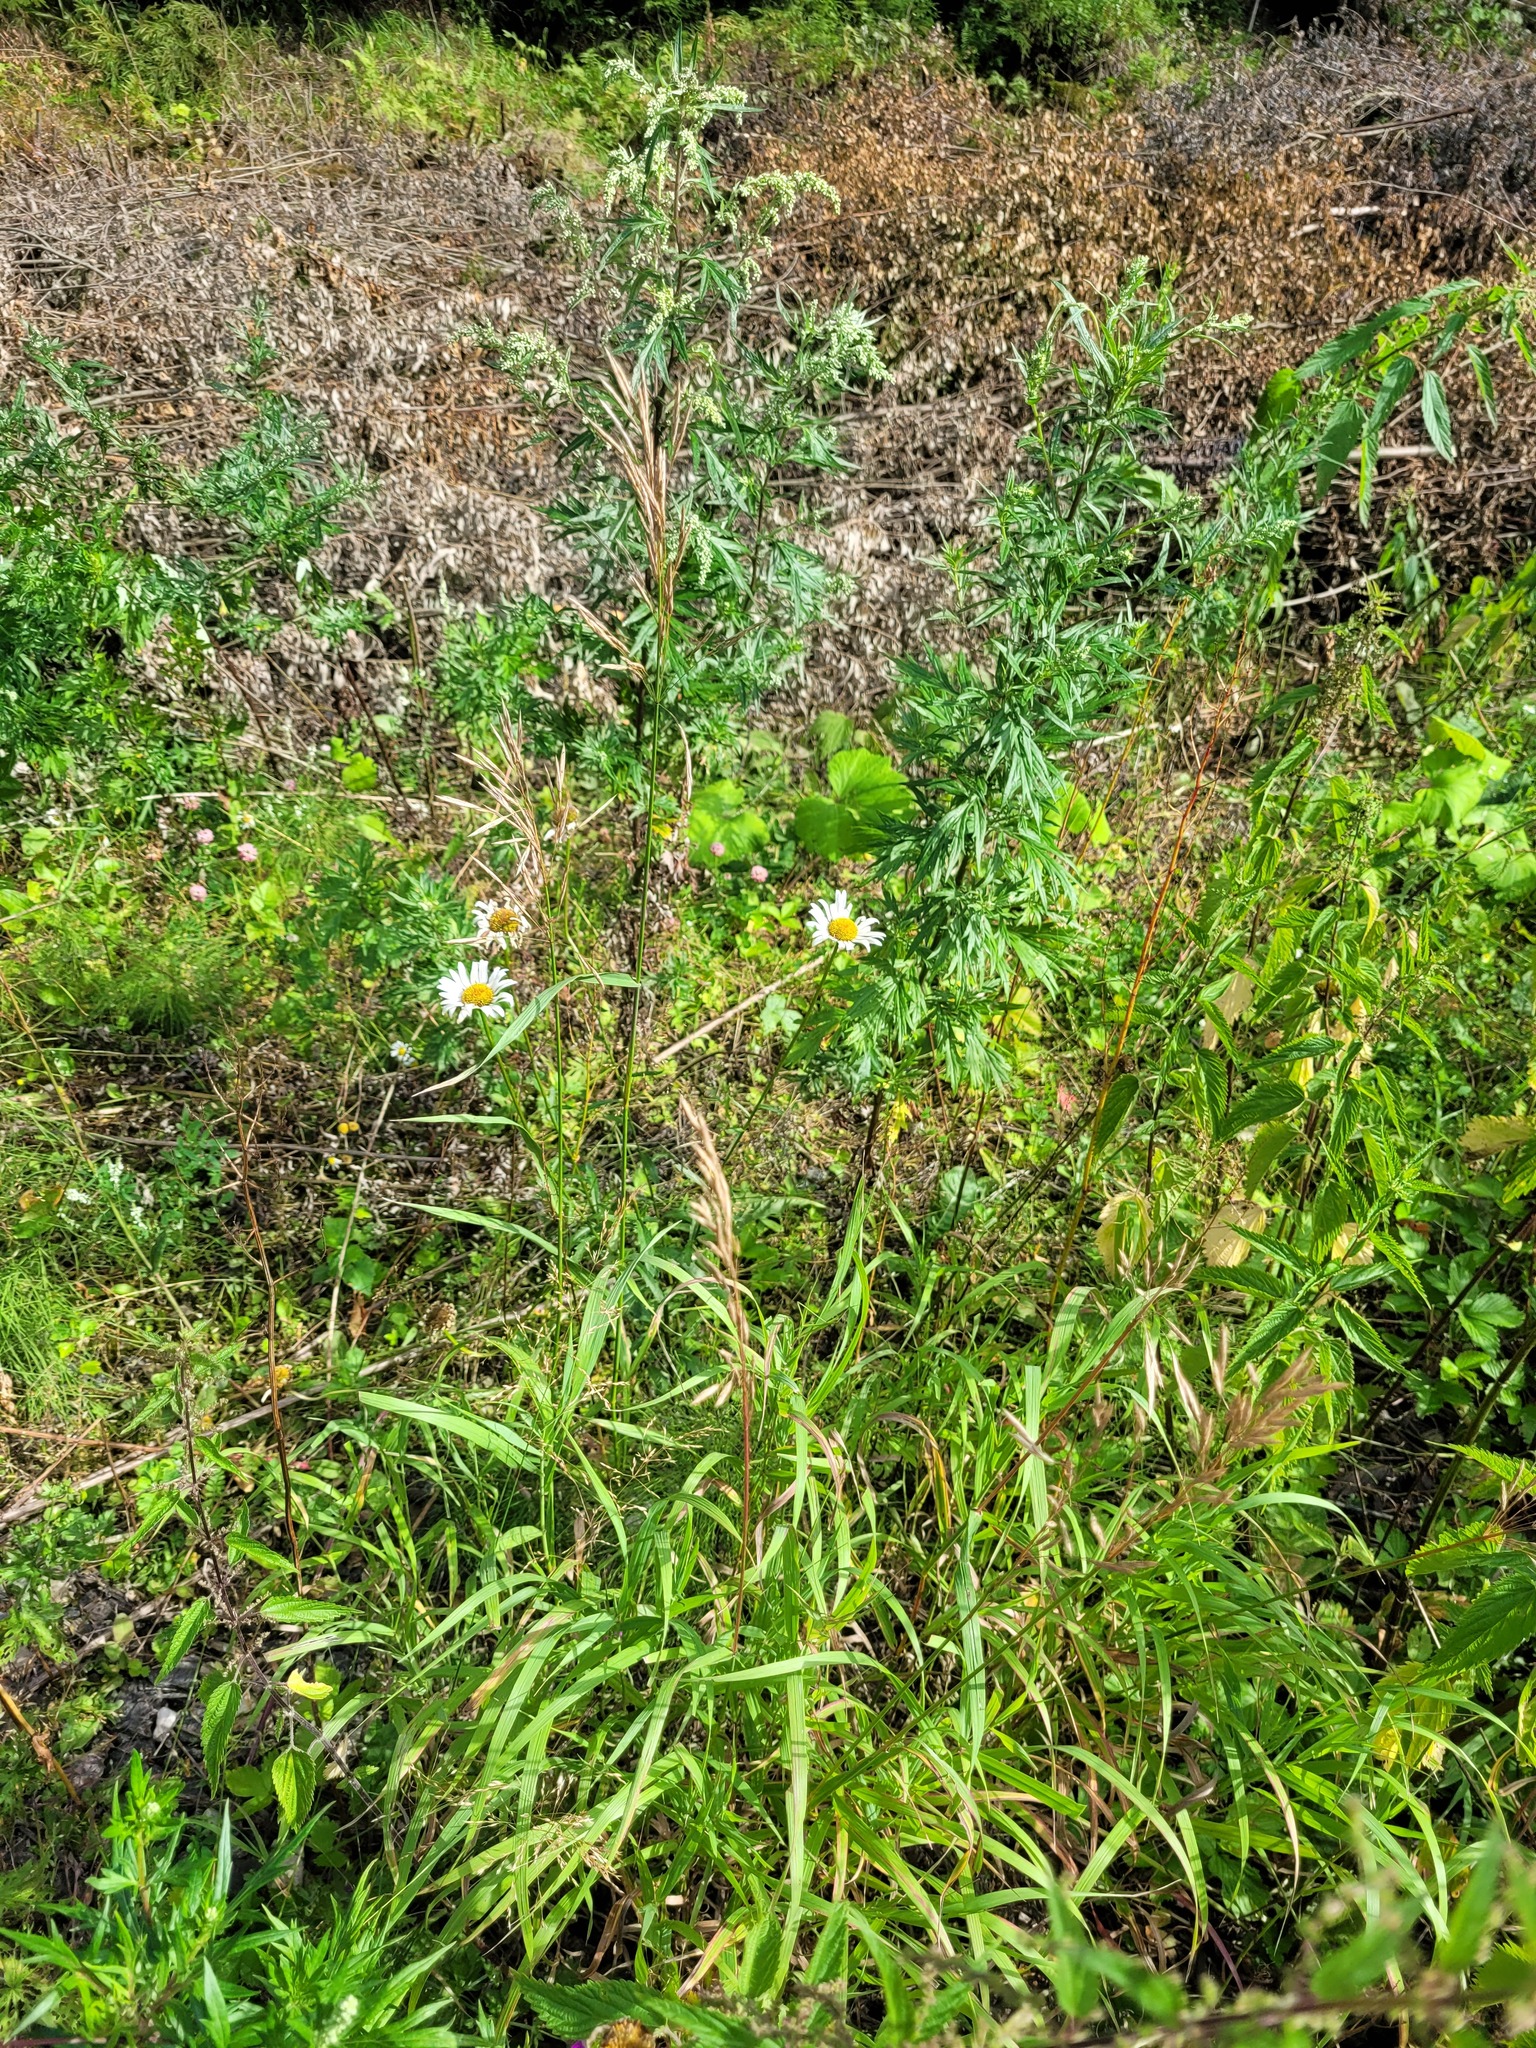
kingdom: Plantae
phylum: Tracheophyta
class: Liliopsida
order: Poales
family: Poaceae
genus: Bromus
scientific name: Bromus inermis
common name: Smooth brome
